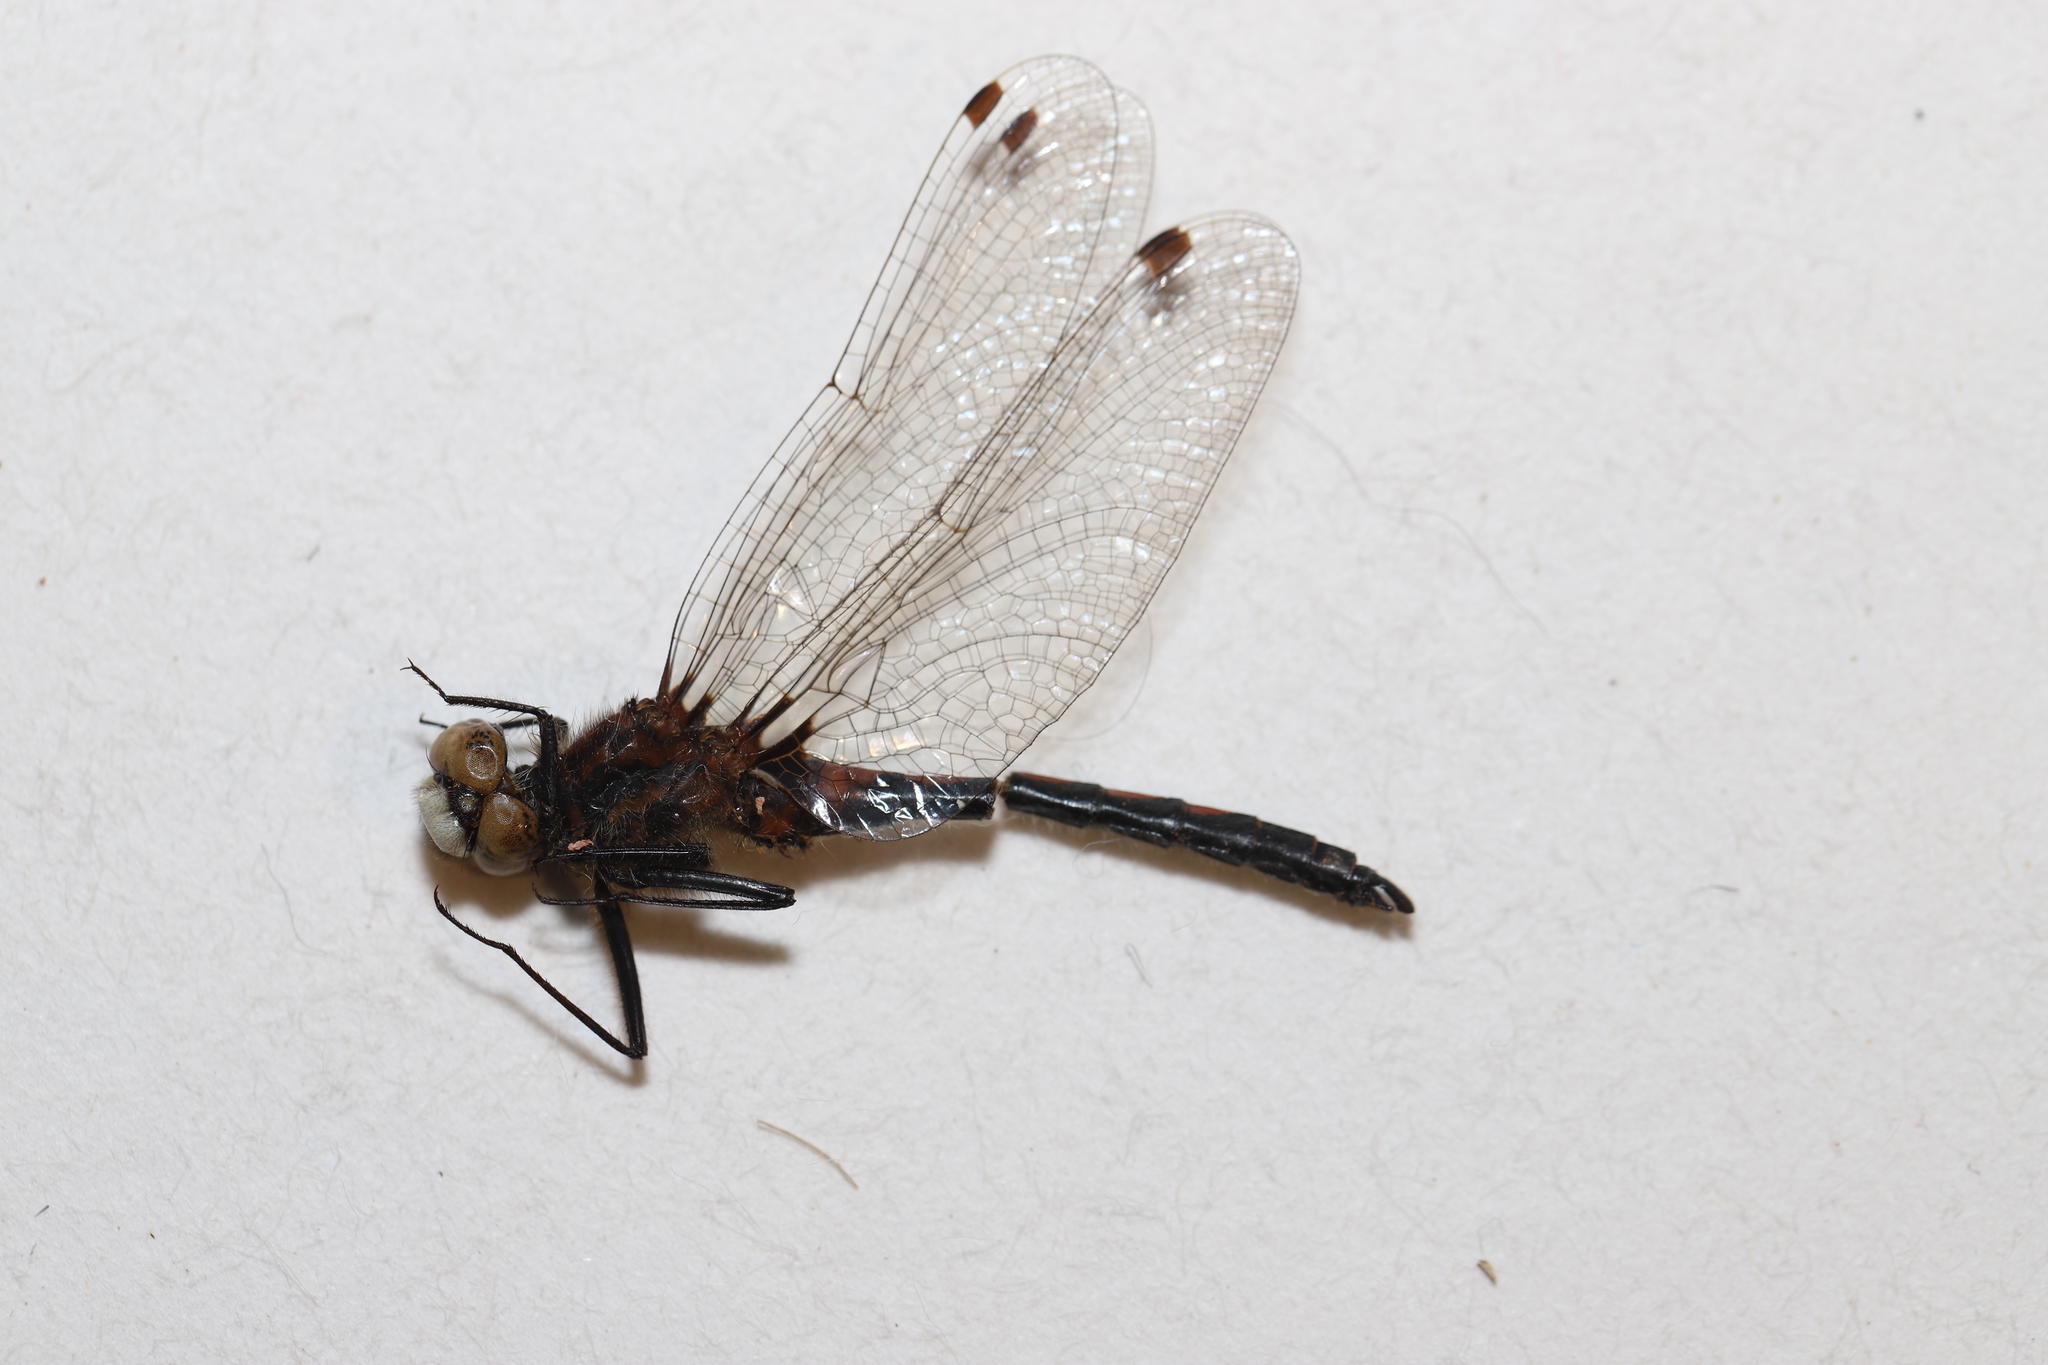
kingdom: Animalia
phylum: Arthropoda
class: Insecta
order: Odonata
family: Libellulidae
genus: Leucorrhinia
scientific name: Leucorrhinia hudsonica
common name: Hudsonian whiteface
